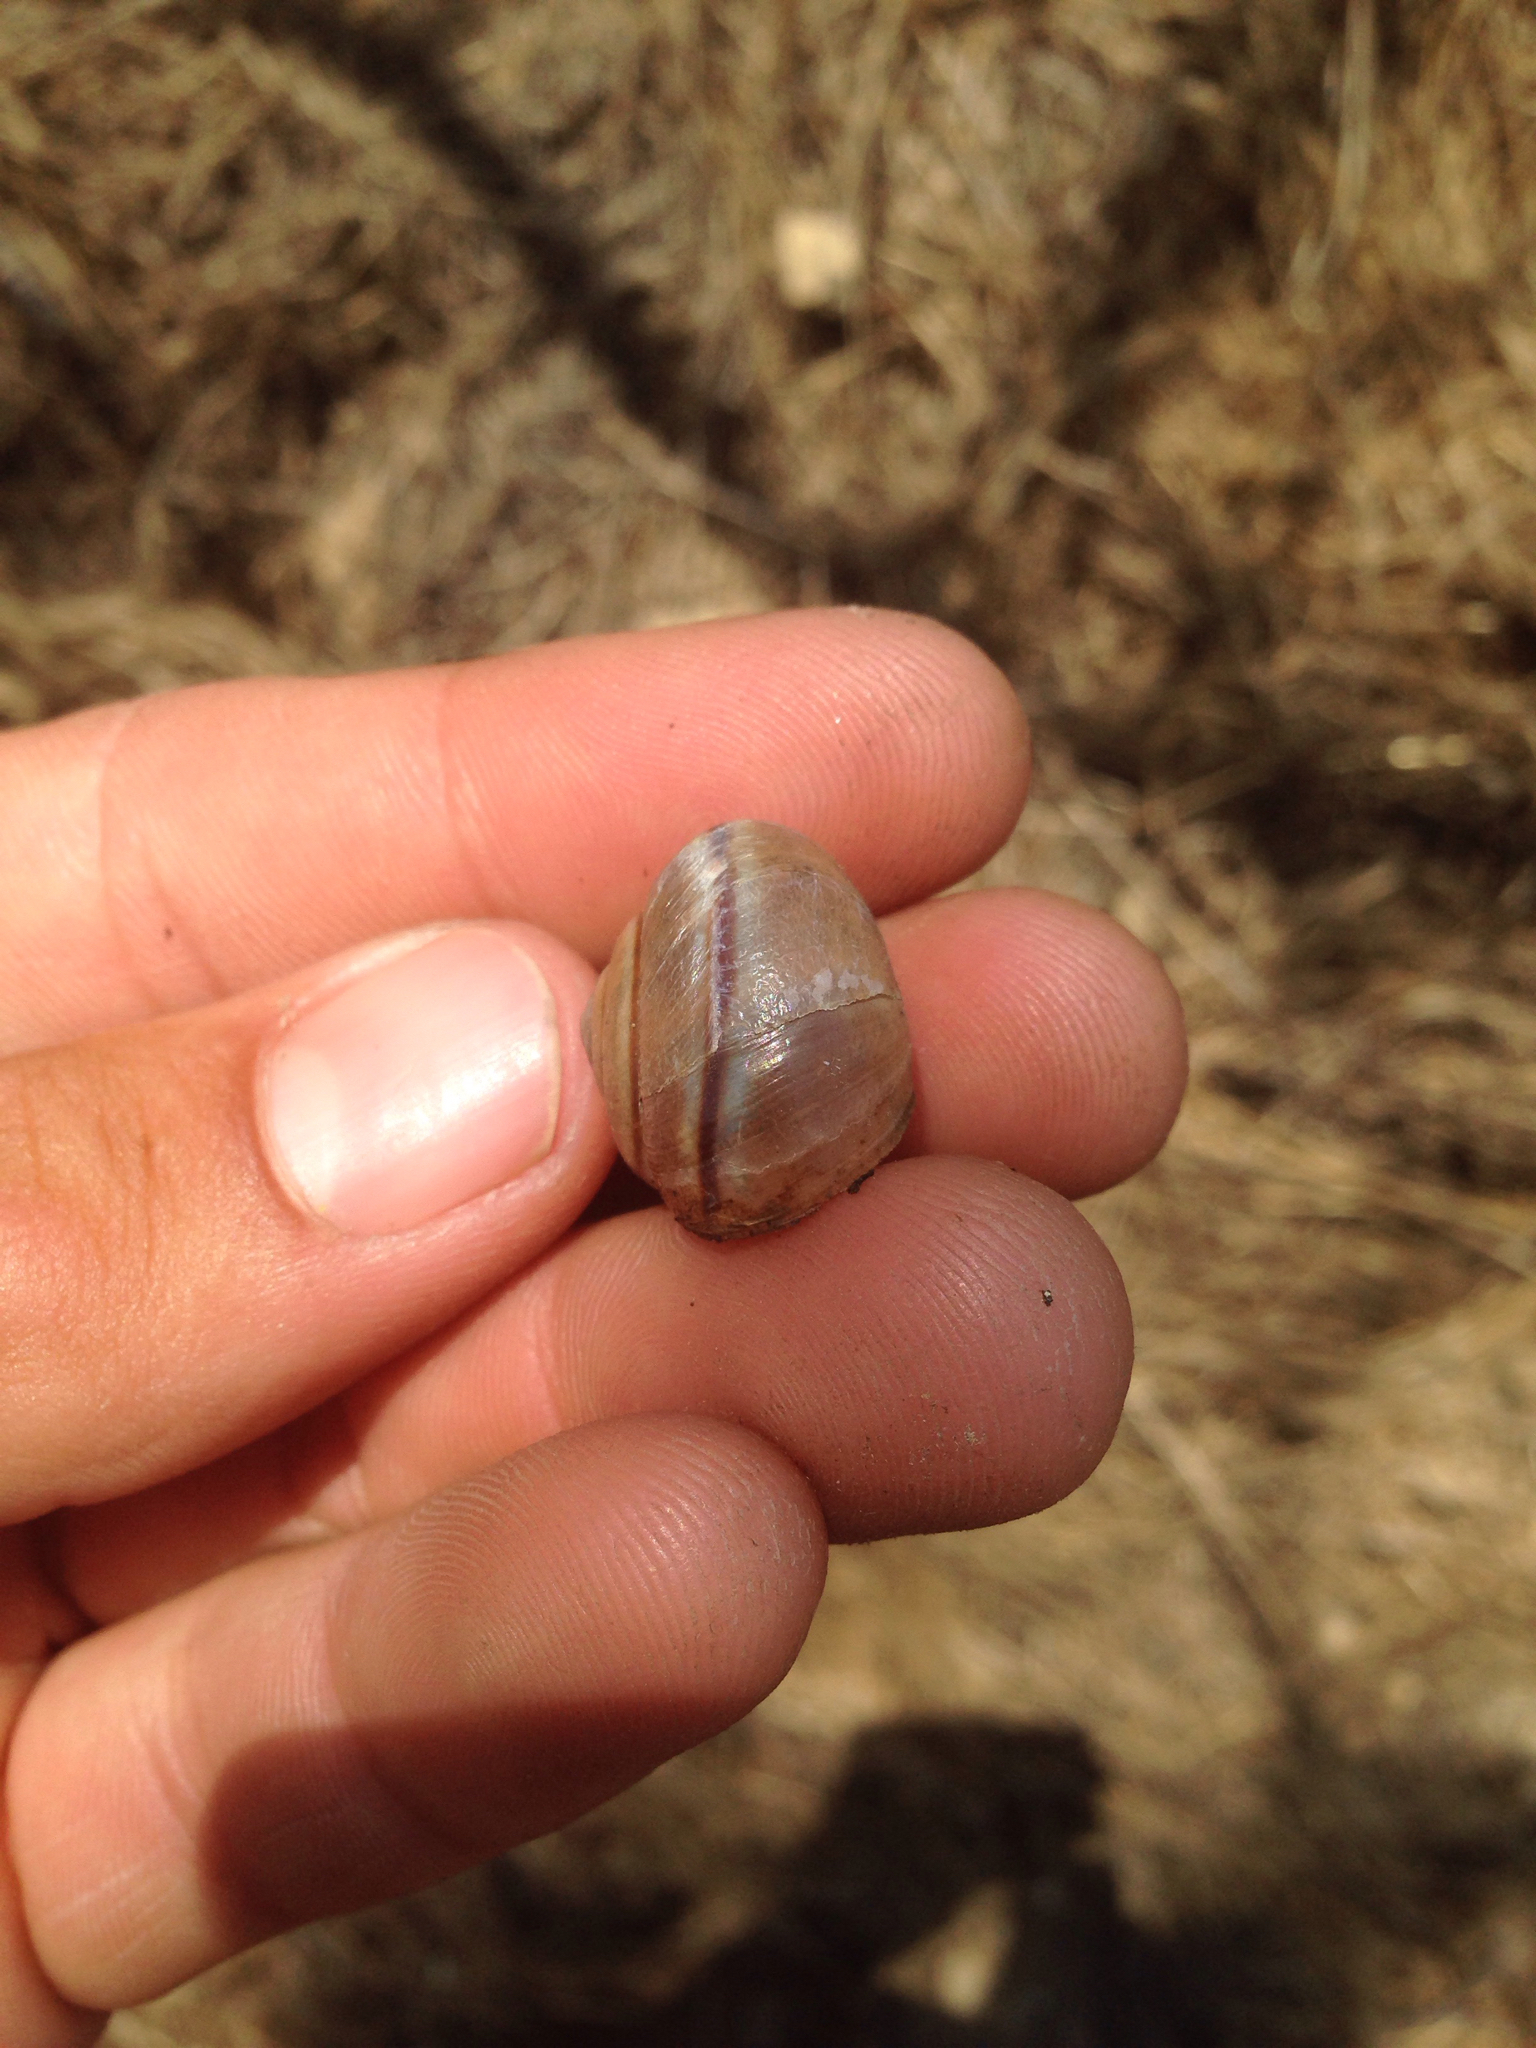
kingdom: Animalia
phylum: Mollusca
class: Gastropoda
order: Stylommatophora
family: Xanthonychidae
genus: Helminthoglypta
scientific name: Helminthoglypta tudiculata
